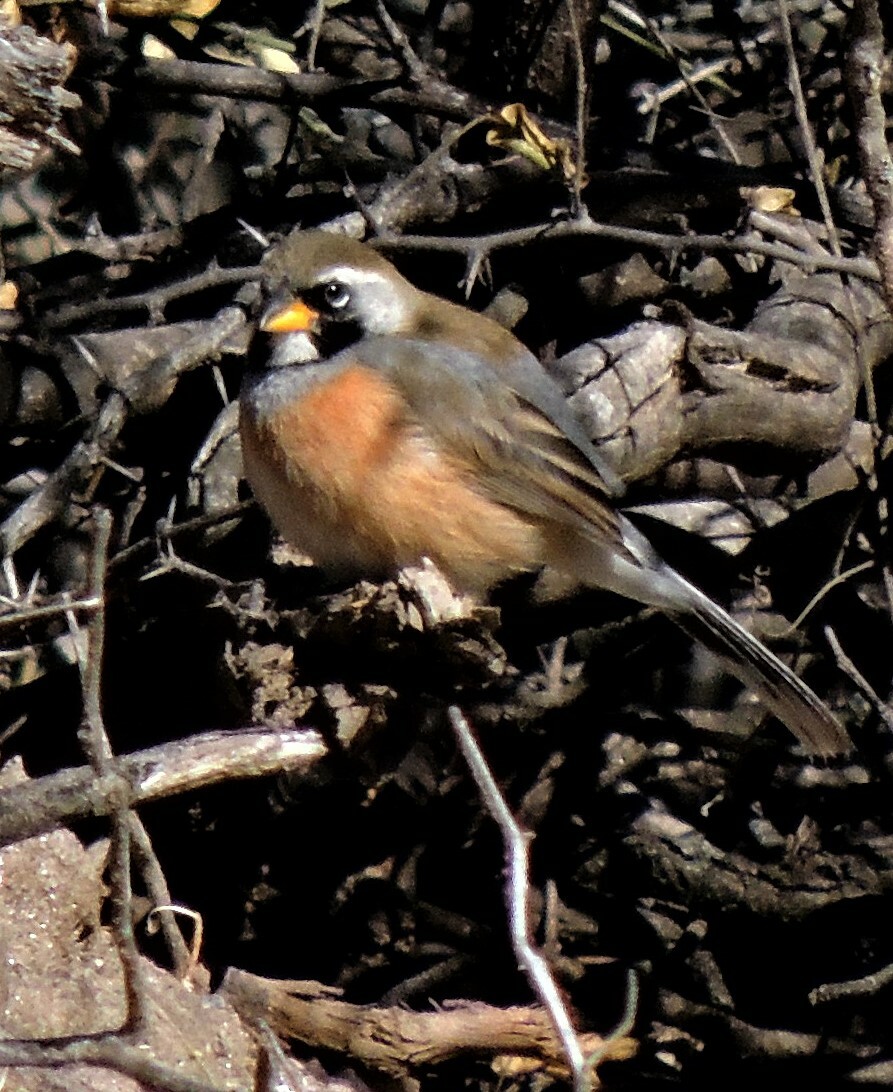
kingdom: Animalia
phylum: Chordata
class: Aves
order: Passeriformes
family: Thraupidae
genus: Saltatricula
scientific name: Saltatricula multicolor
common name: Many-colored chaco finch
